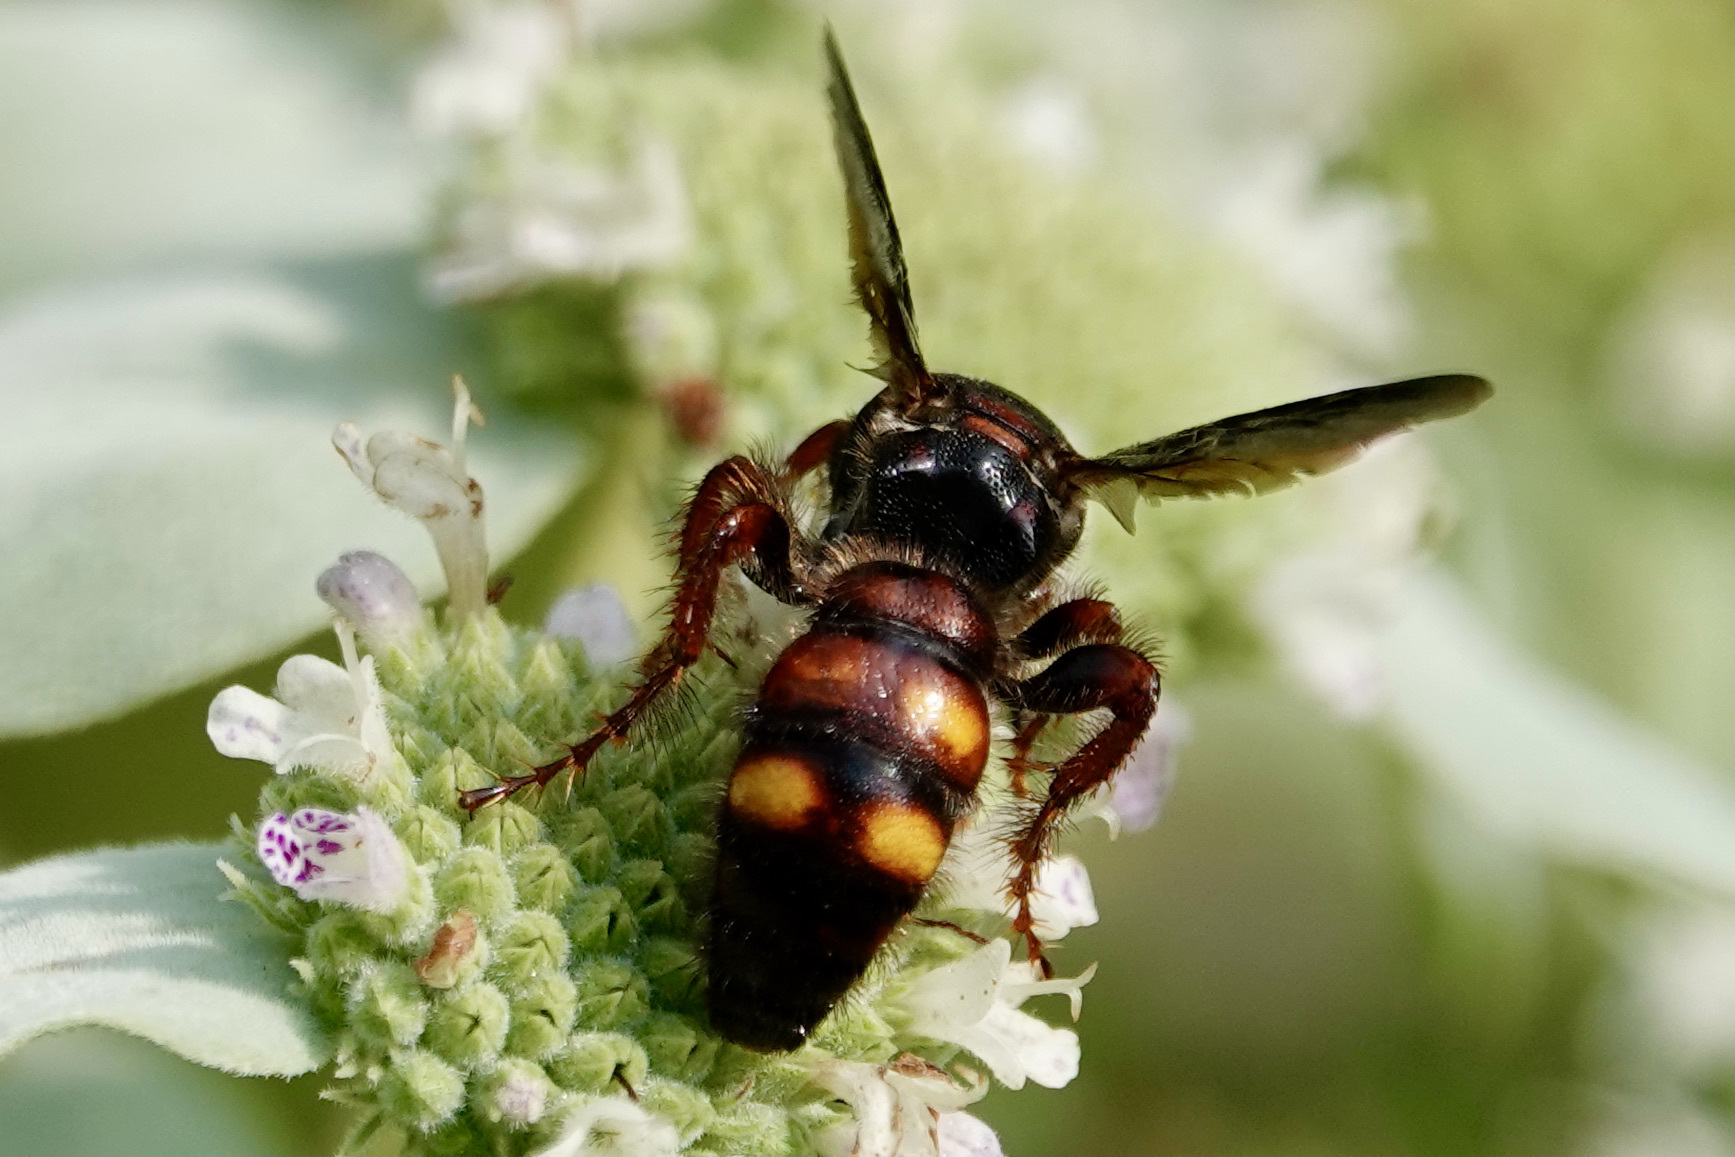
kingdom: Animalia
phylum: Arthropoda
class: Insecta
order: Hymenoptera
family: Scoliidae
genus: Scolia
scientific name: Scolia nobilitata
